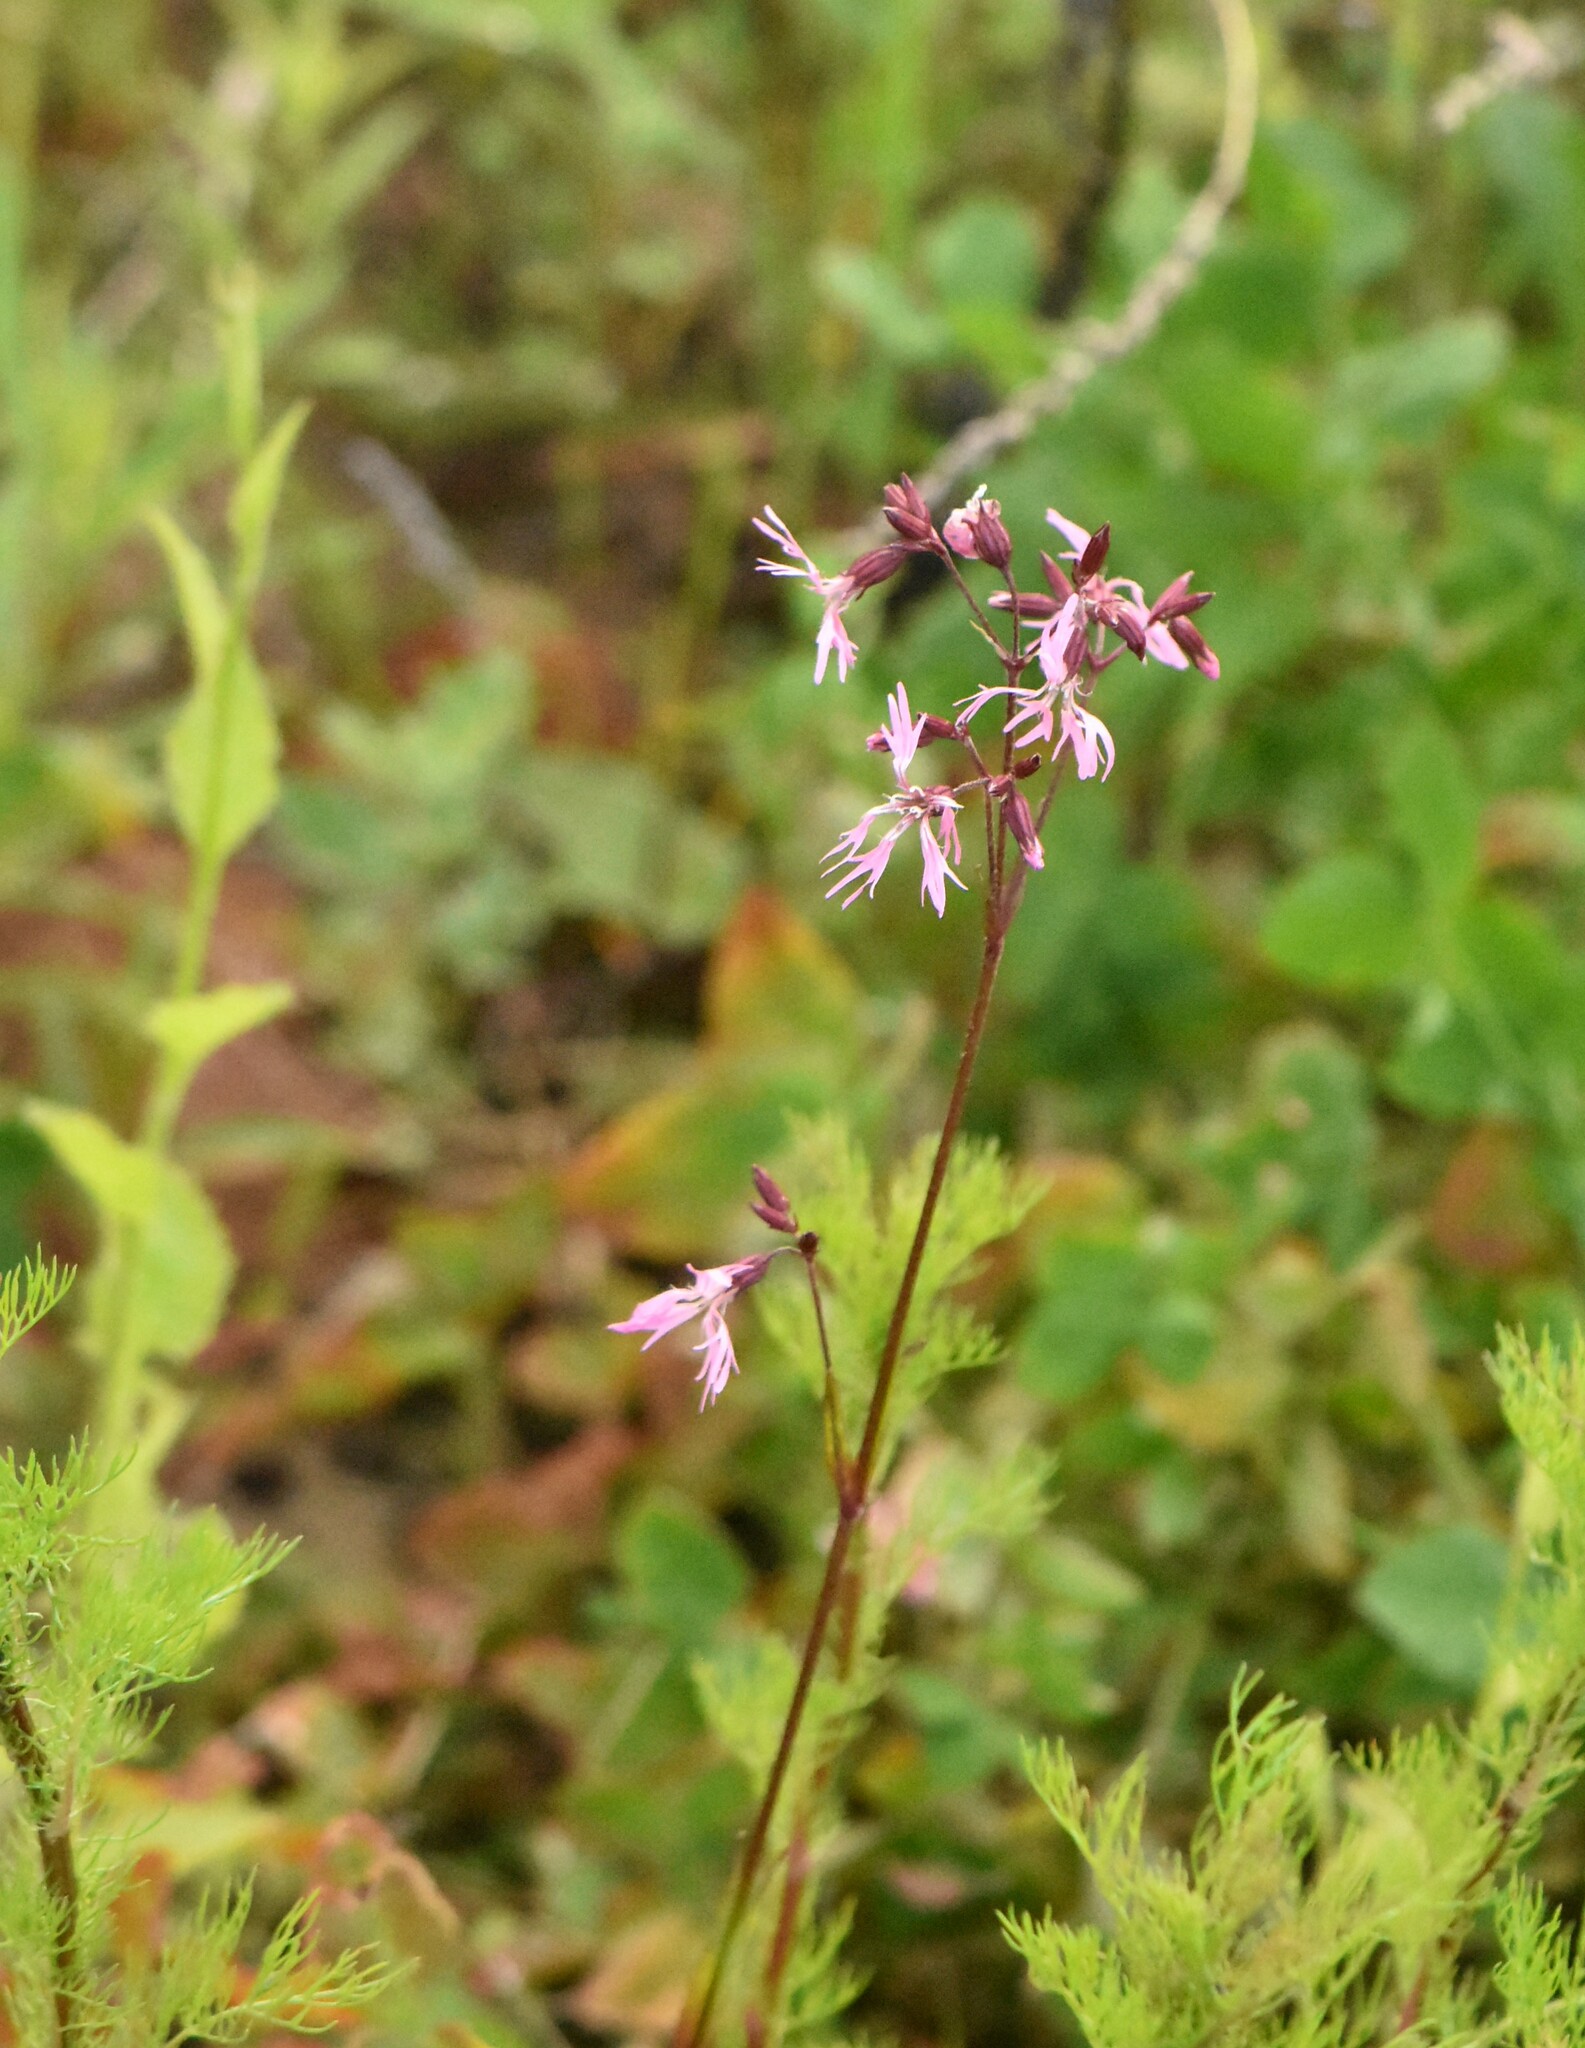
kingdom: Plantae
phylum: Tracheophyta
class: Magnoliopsida
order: Caryophyllales
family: Caryophyllaceae
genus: Silene
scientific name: Silene flos-cuculi
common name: Ragged-robin
